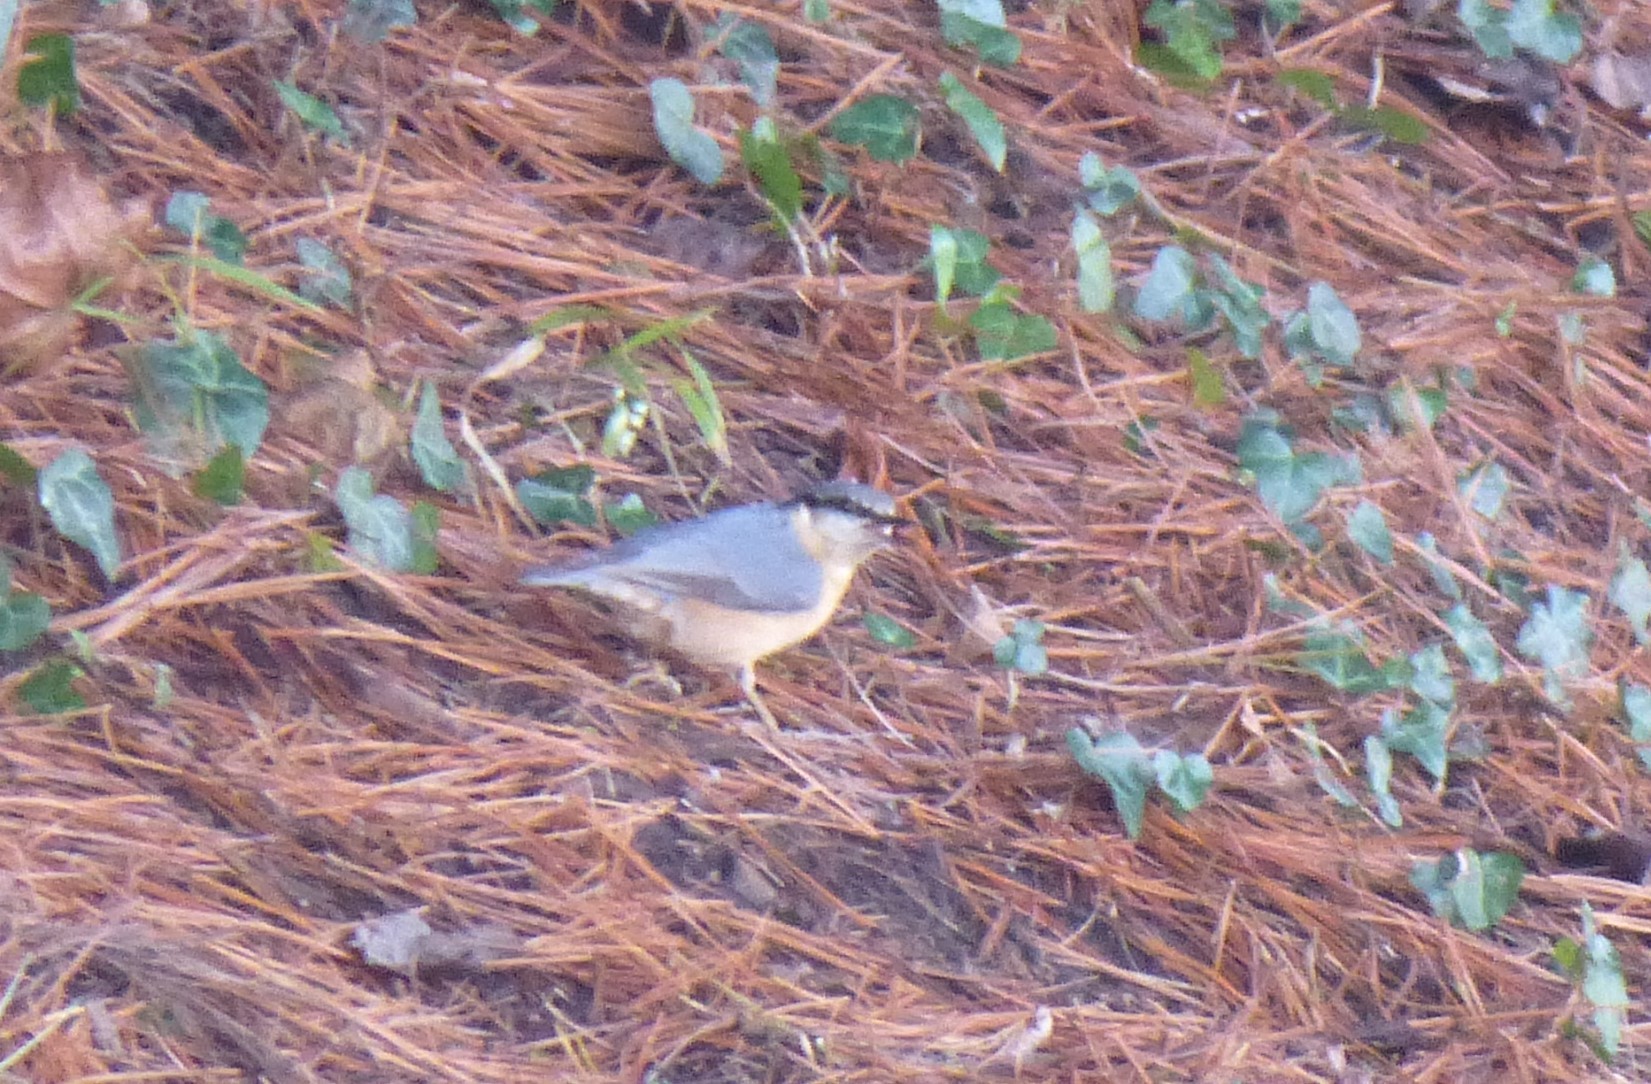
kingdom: Animalia
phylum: Chordata
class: Aves
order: Passeriformes
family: Sittidae
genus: Sitta
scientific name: Sitta europaea
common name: Eurasian nuthatch
